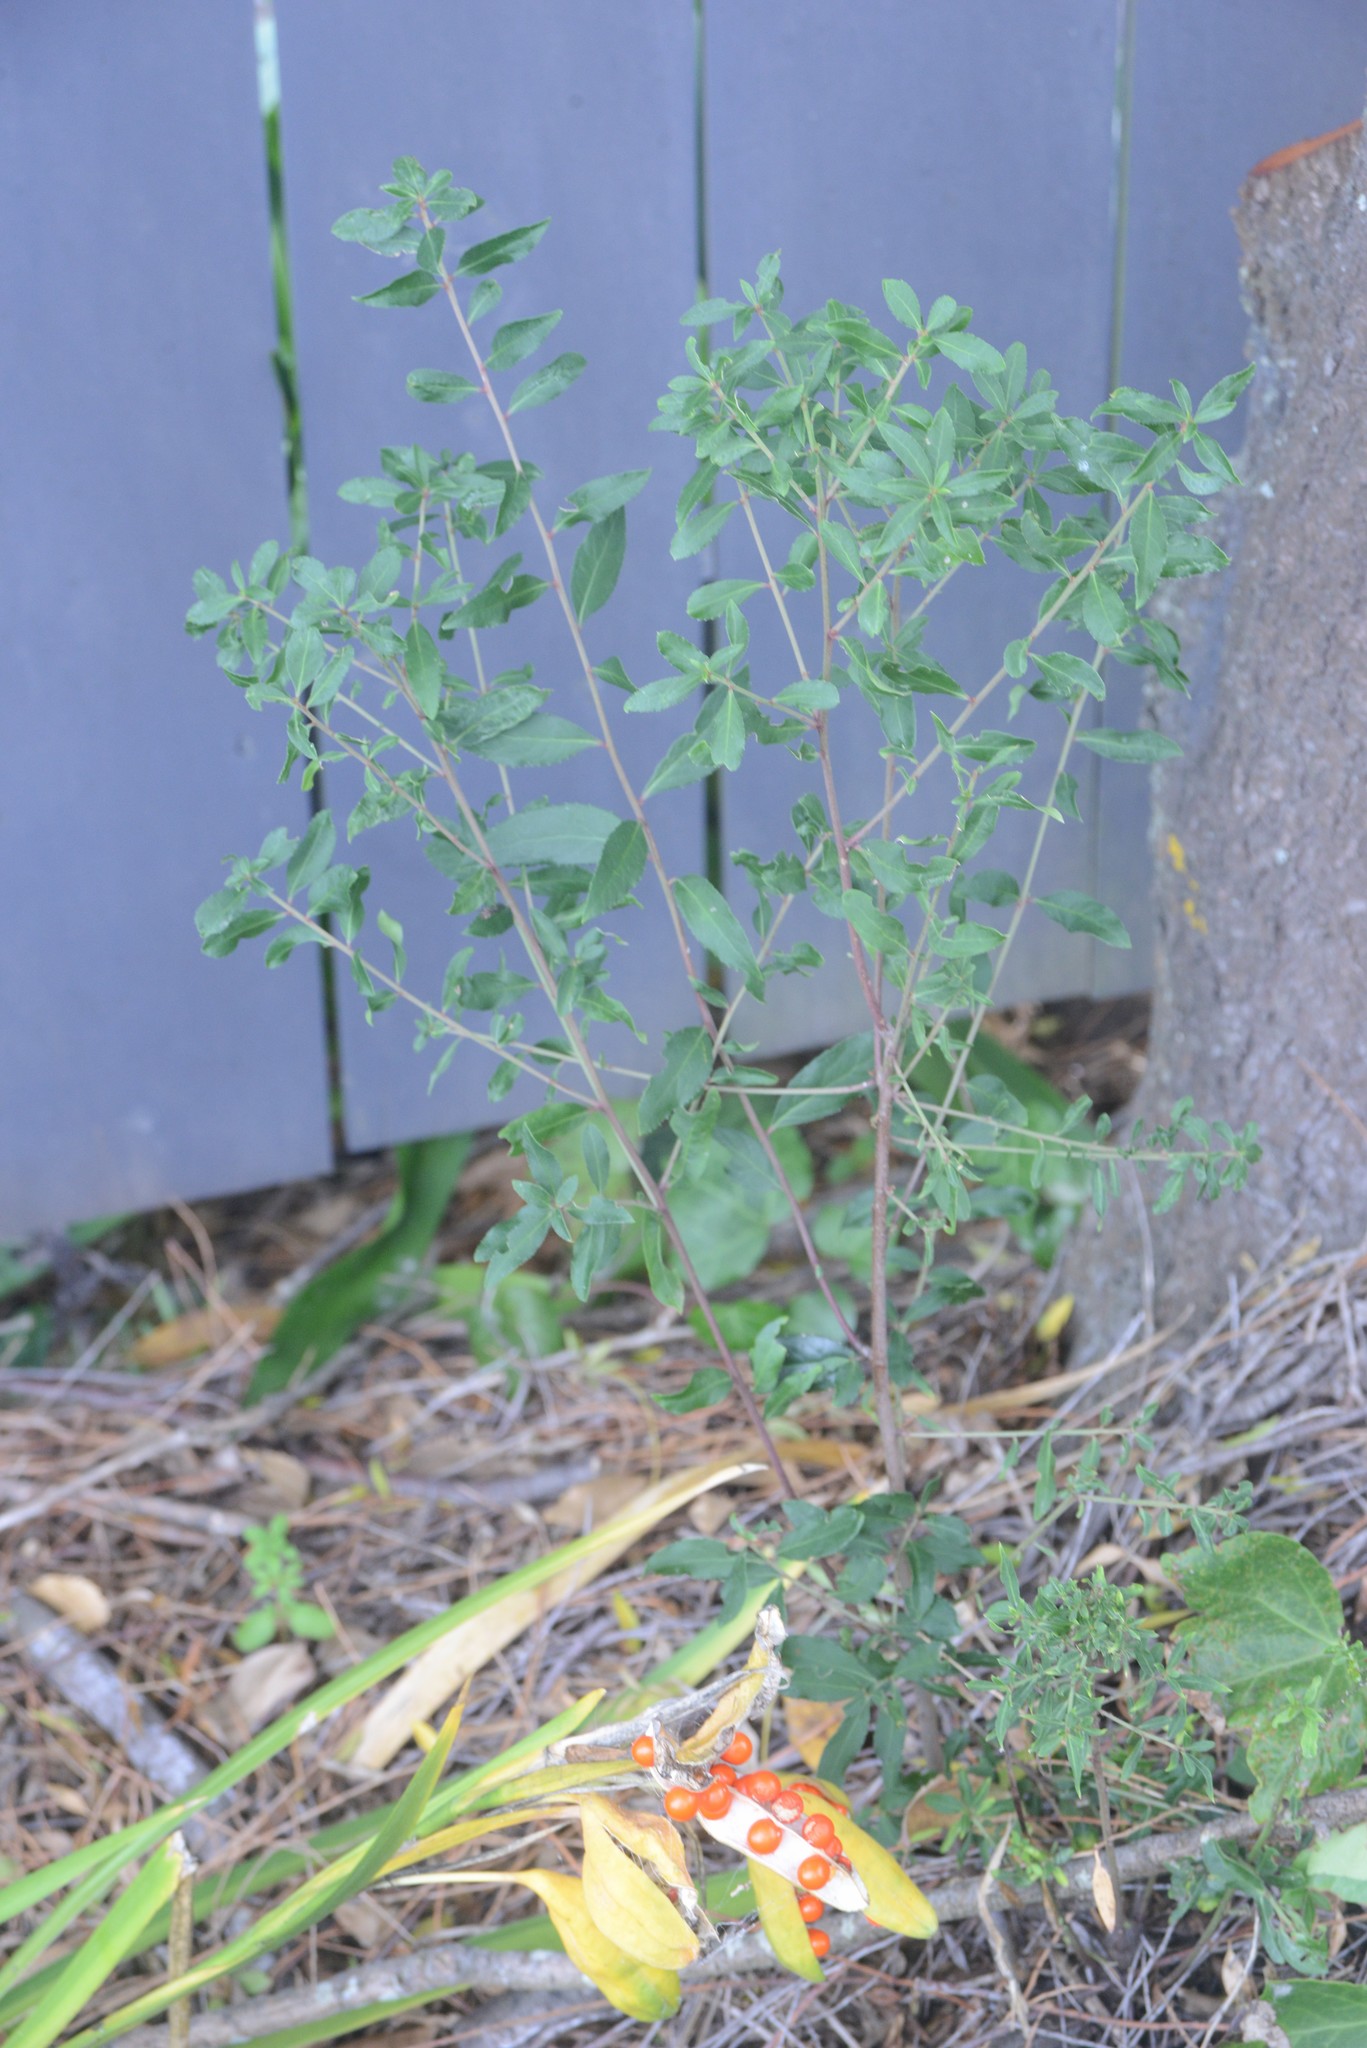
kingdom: Plantae
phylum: Tracheophyta
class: Magnoliopsida
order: Celastrales
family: Celastraceae
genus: Maytenus
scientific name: Maytenus boaria
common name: Mayten
